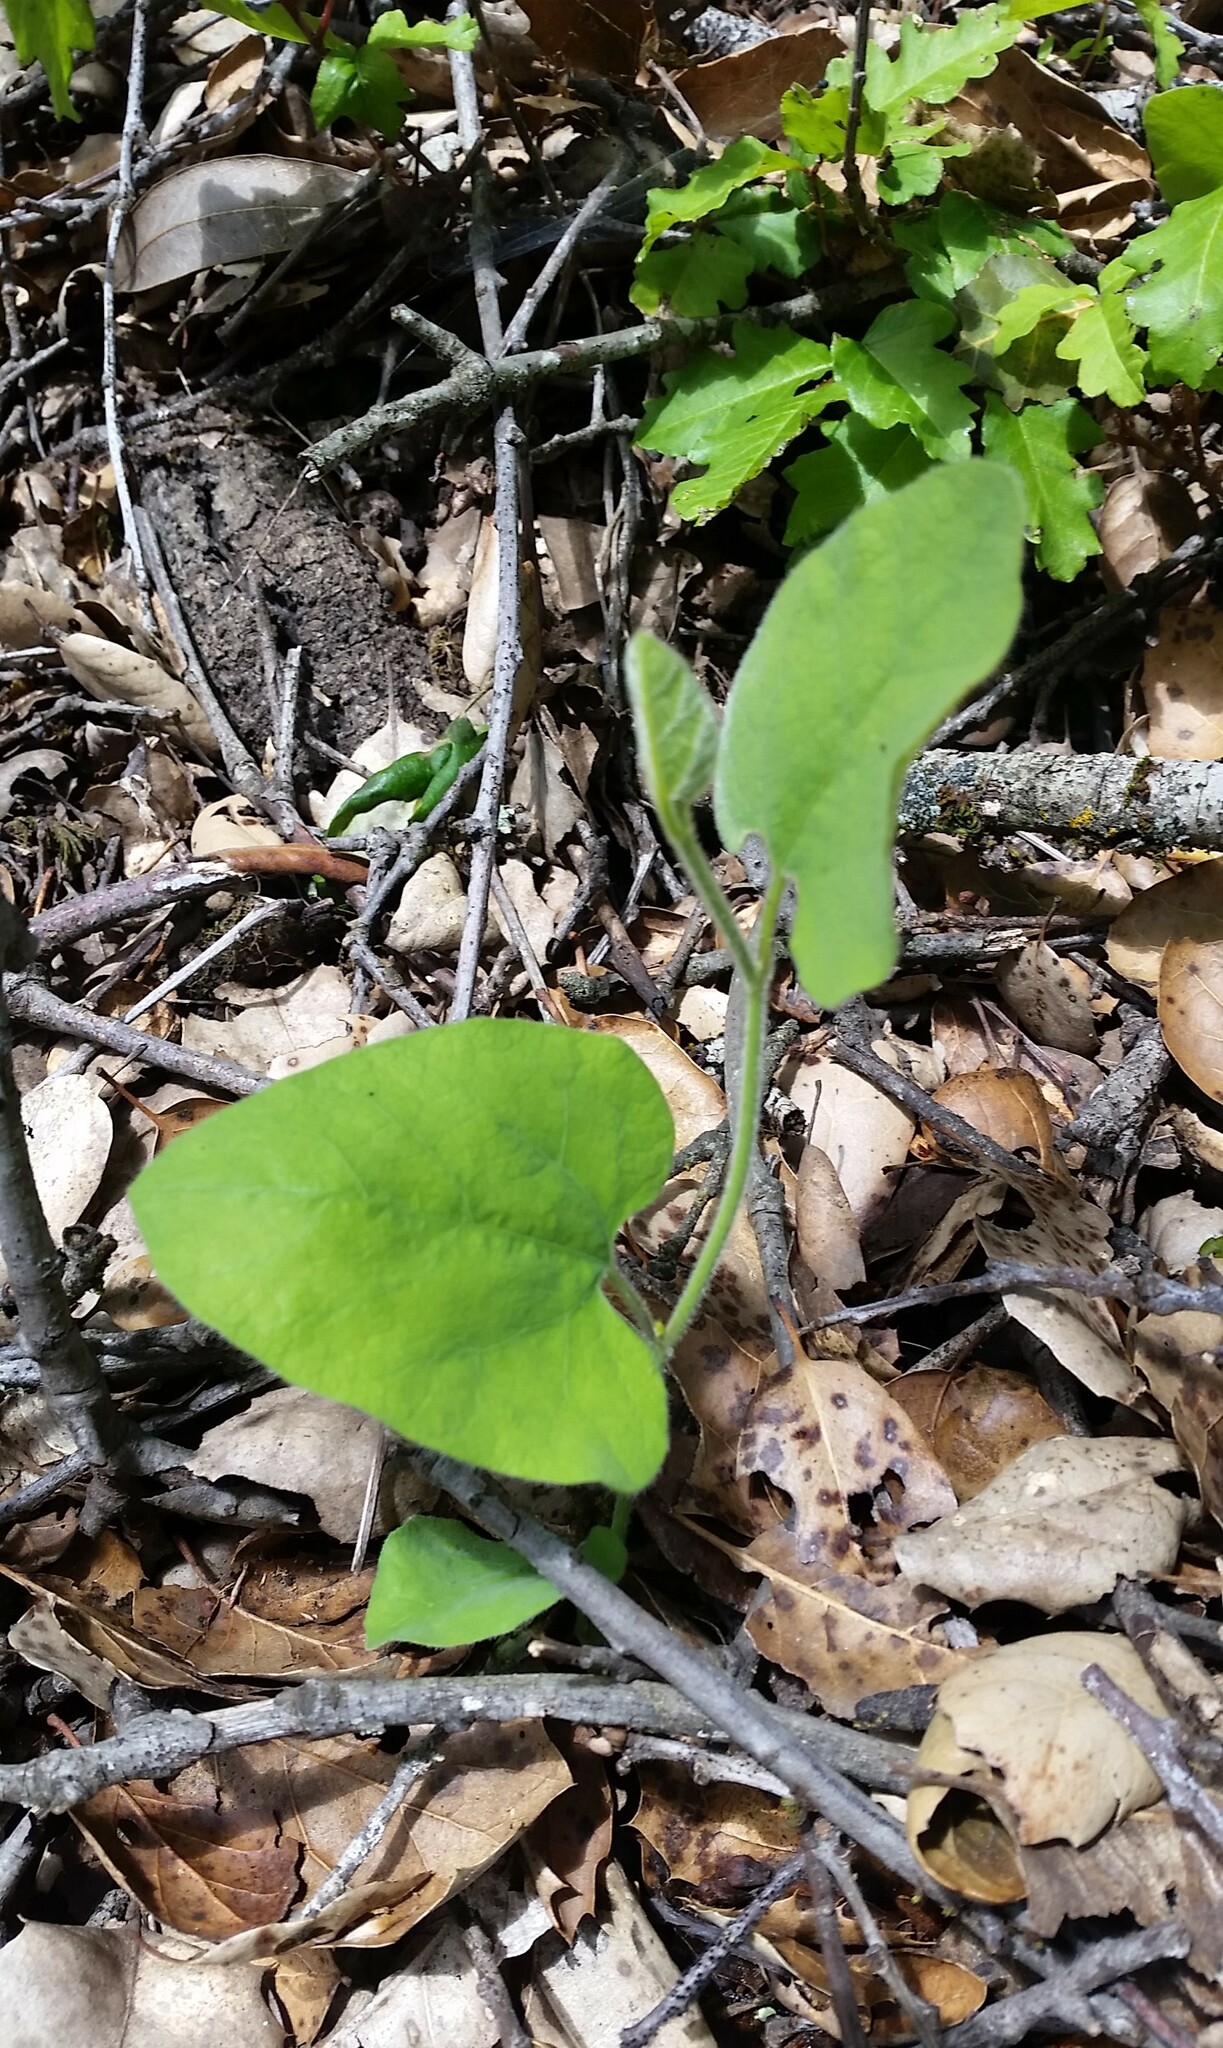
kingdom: Plantae
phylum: Tracheophyta
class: Magnoliopsida
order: Piperales
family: Aristolochiaceae
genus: Isotrema
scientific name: Isotrema californicum
